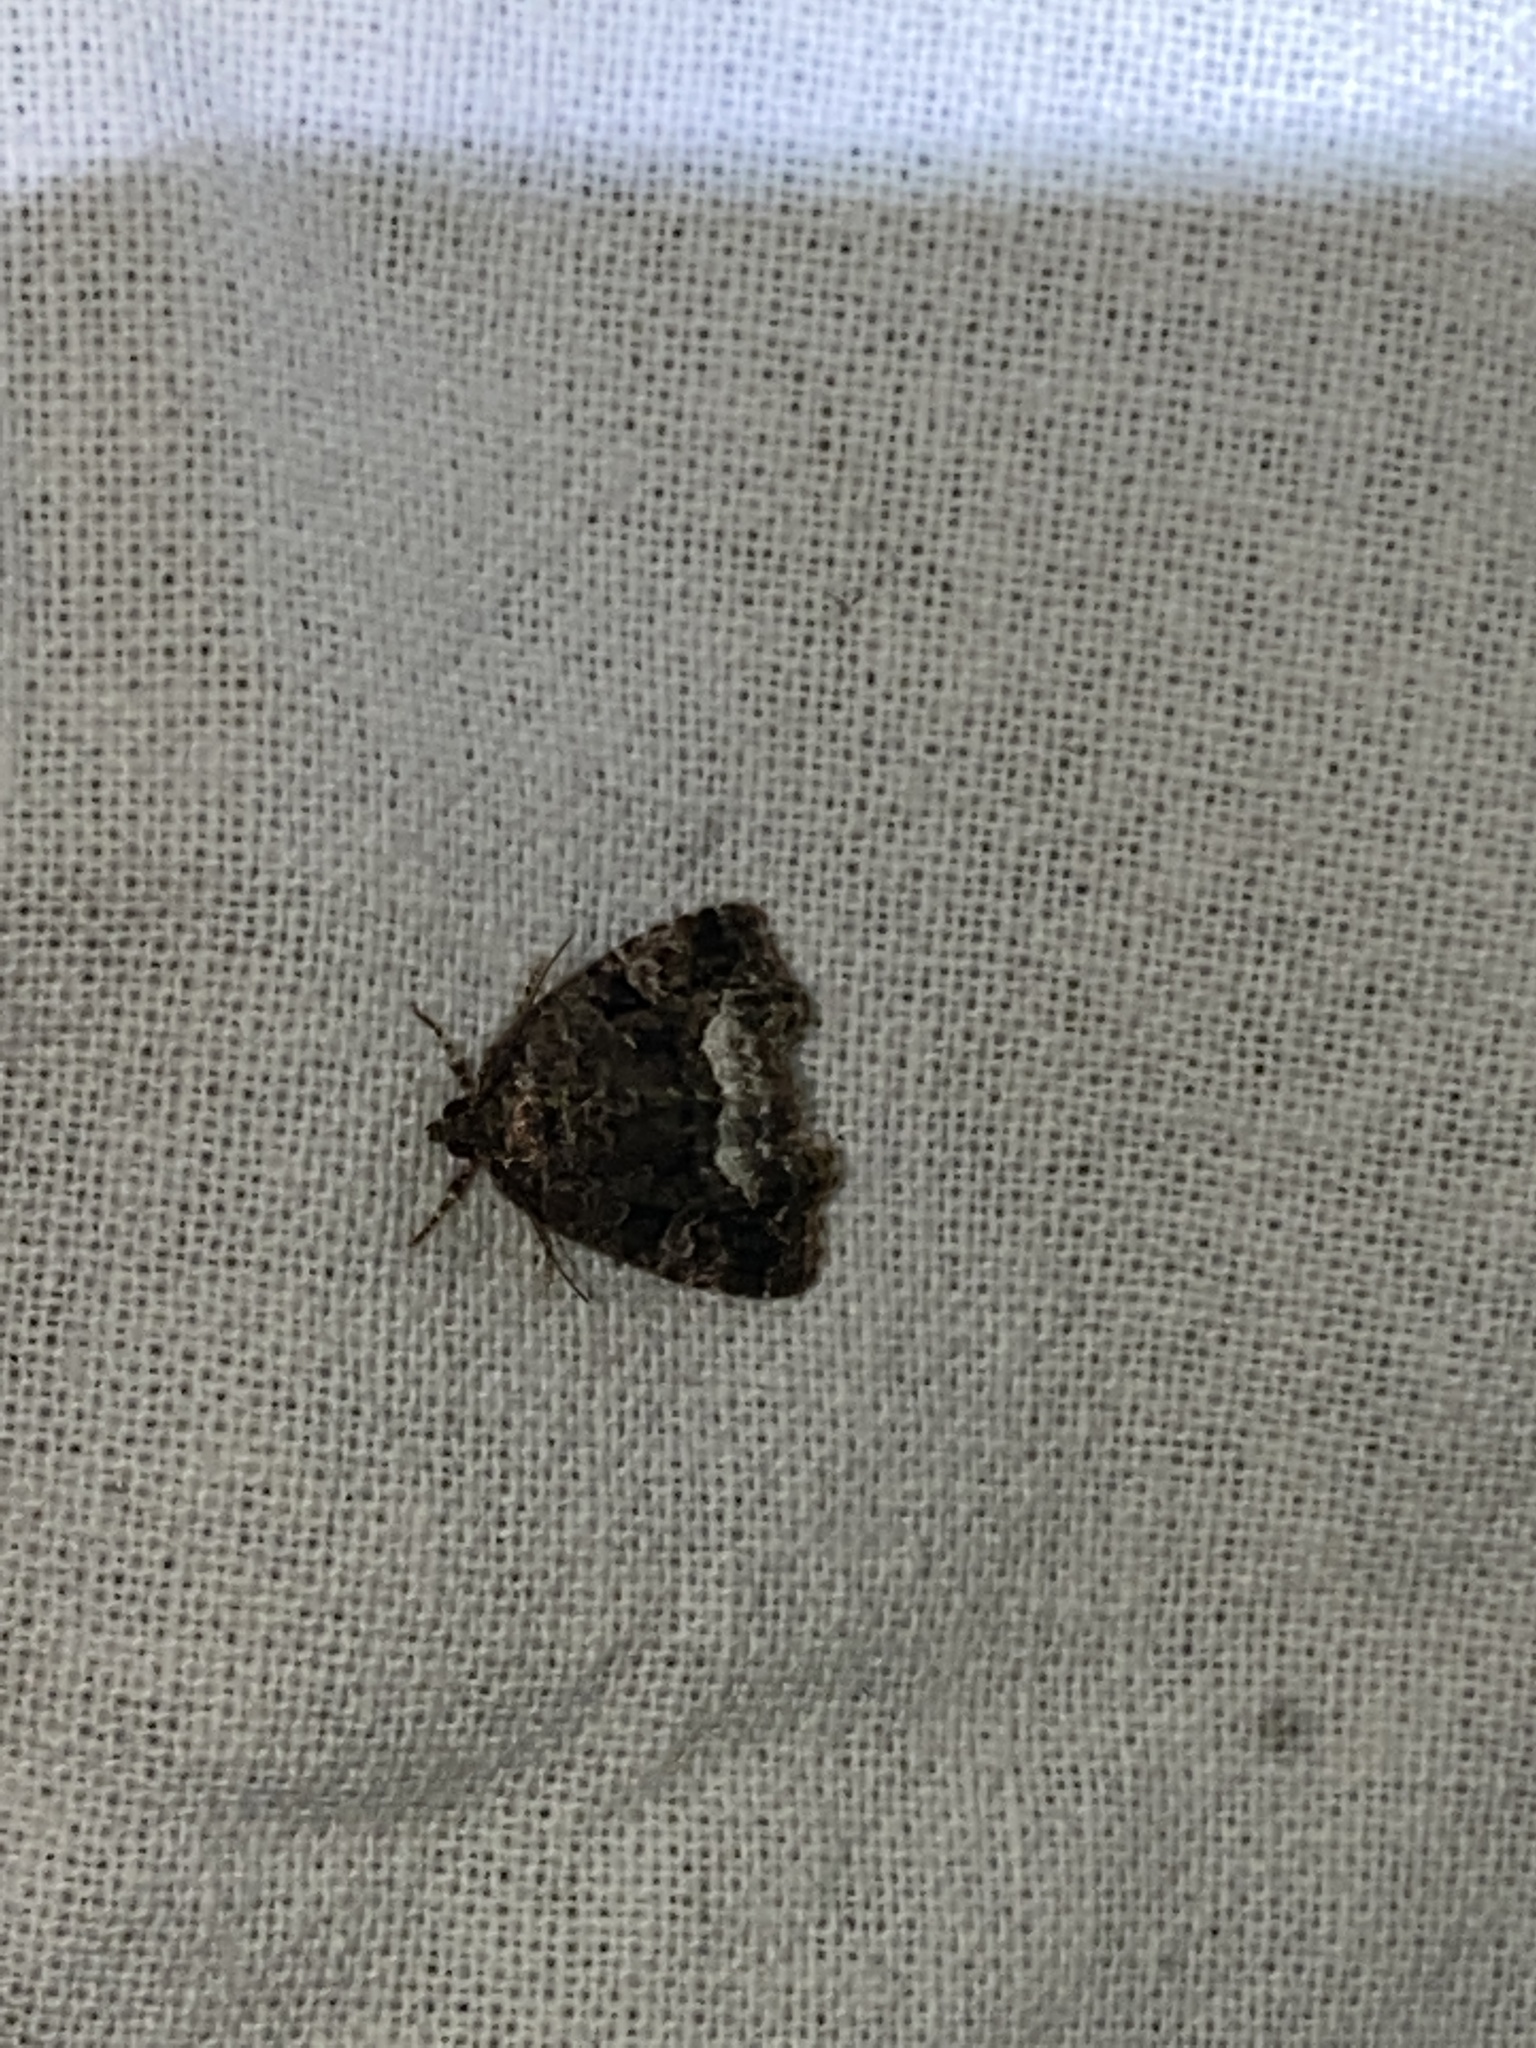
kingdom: Animalia
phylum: Arthropoda
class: Insecta
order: Lepidoptera
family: Noctuidae
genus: Deltote
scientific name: Deltote pygarga
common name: Marbled white spot
